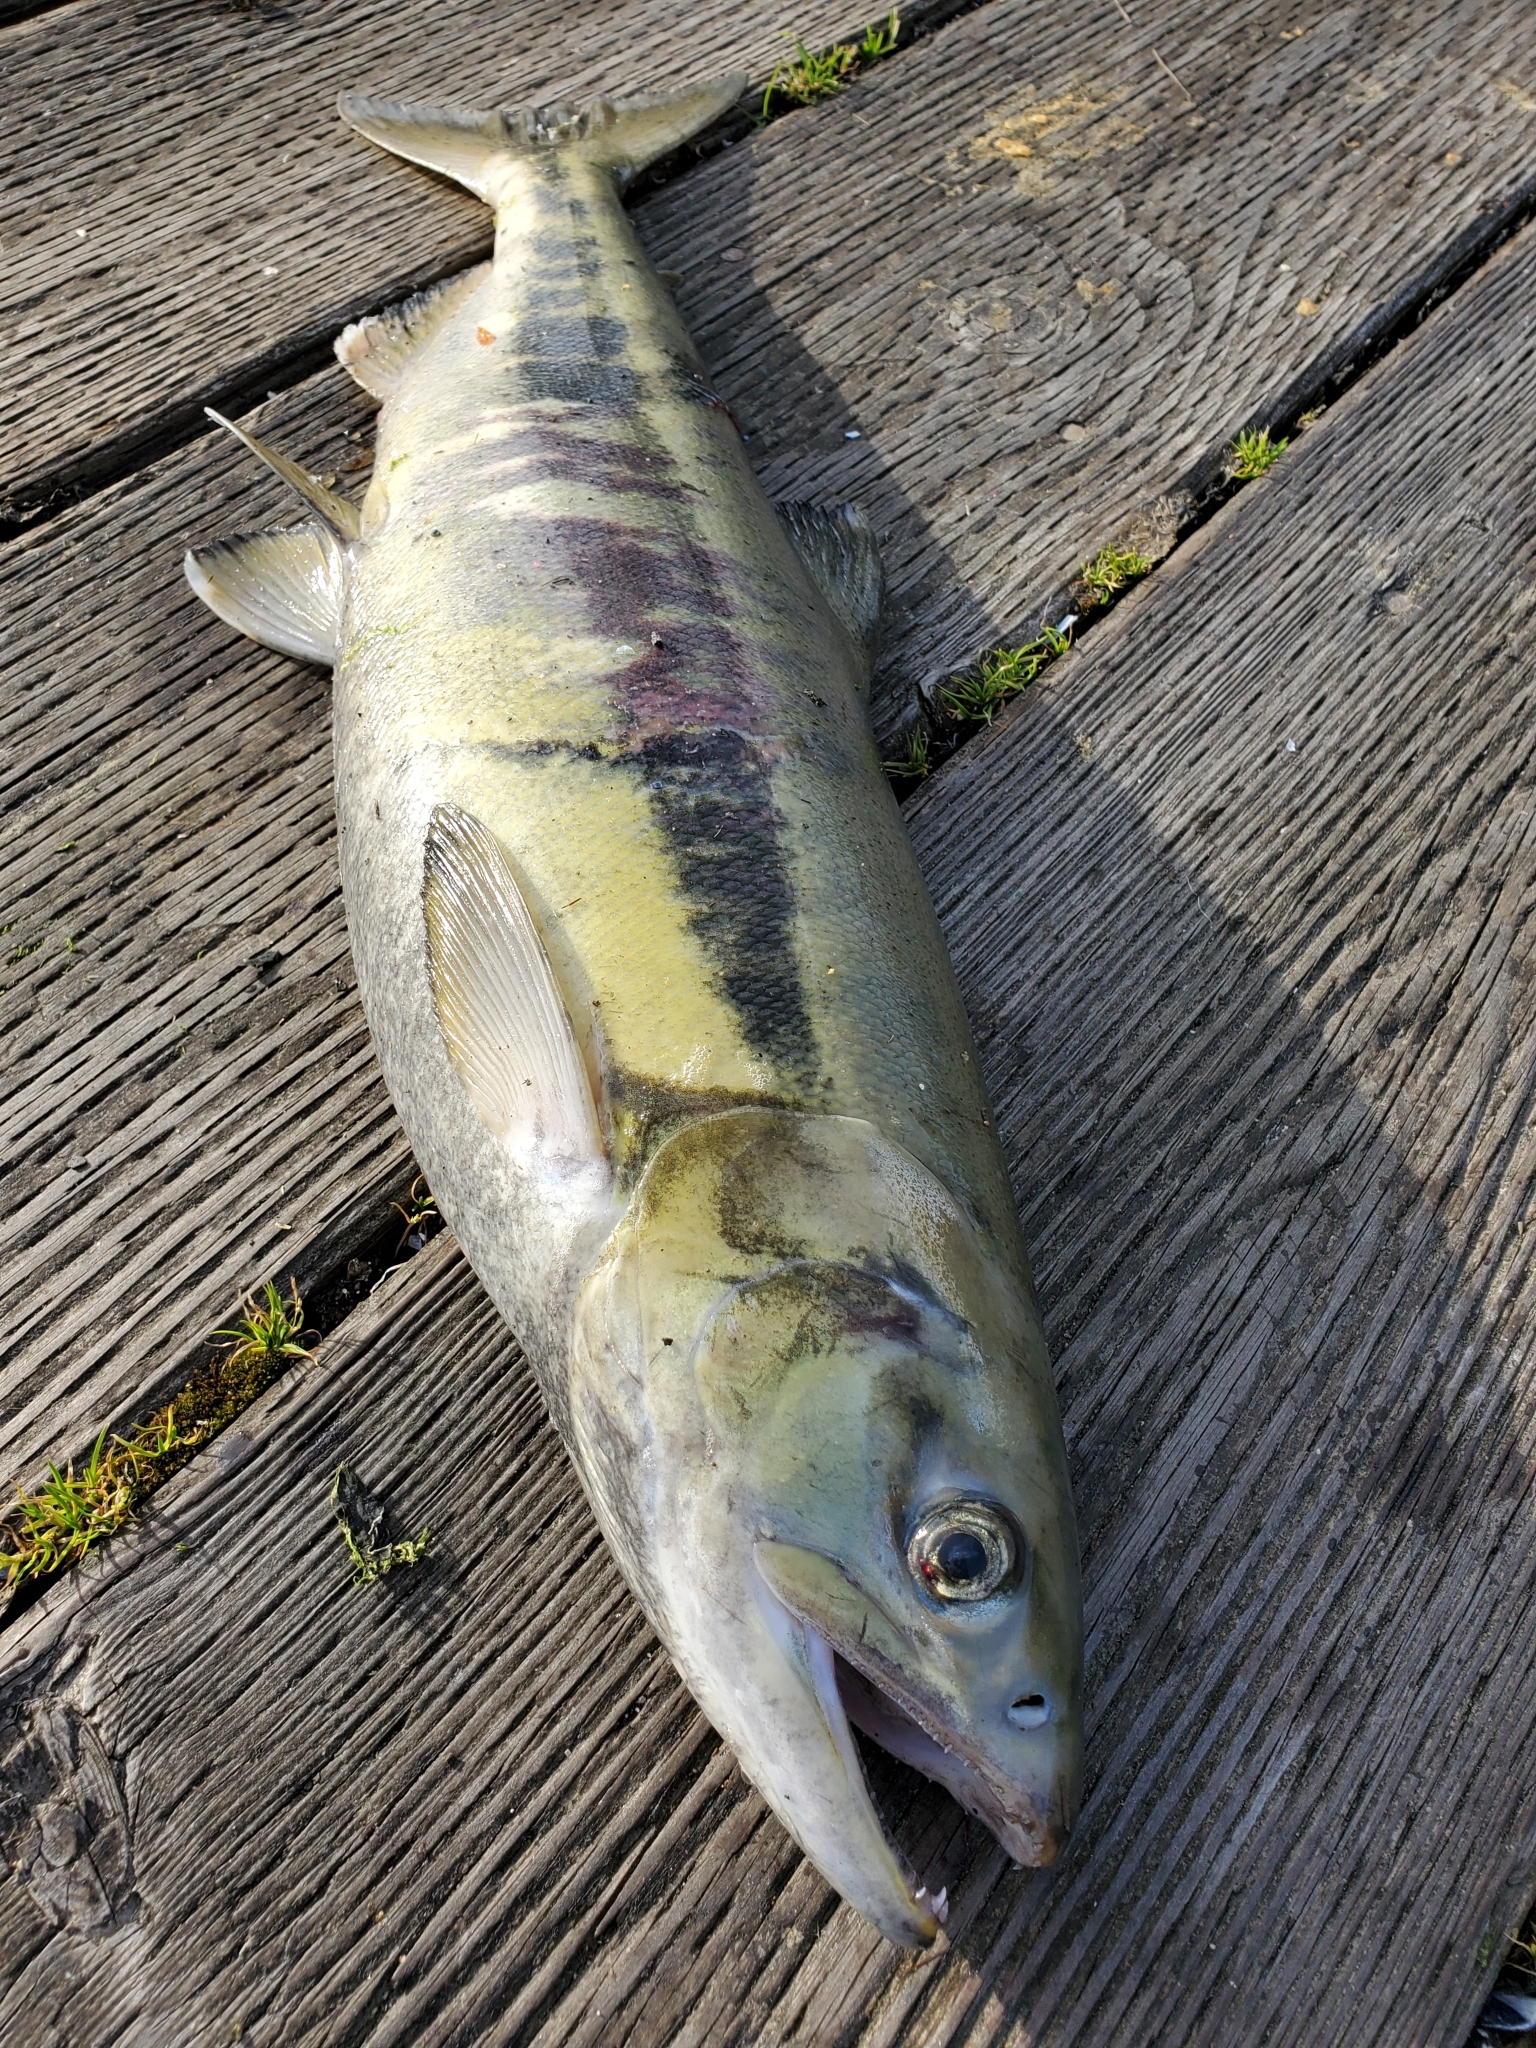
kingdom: Animalia
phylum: Chordata
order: Salmoniformes
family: Salmonidae
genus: Oncorhynchus
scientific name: Oncorhynchus keta
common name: Chum salmon
